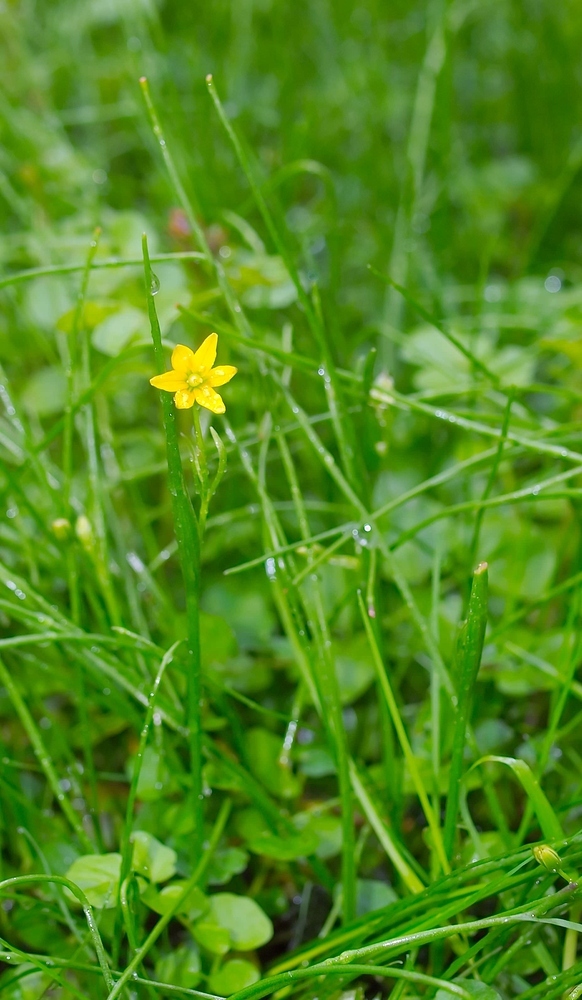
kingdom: Plantae
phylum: Tracheophyta
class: Liliopsida
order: Liliales
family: Liliaceae
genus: Gagea
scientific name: Gagea spathacea
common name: Belgian gagea
